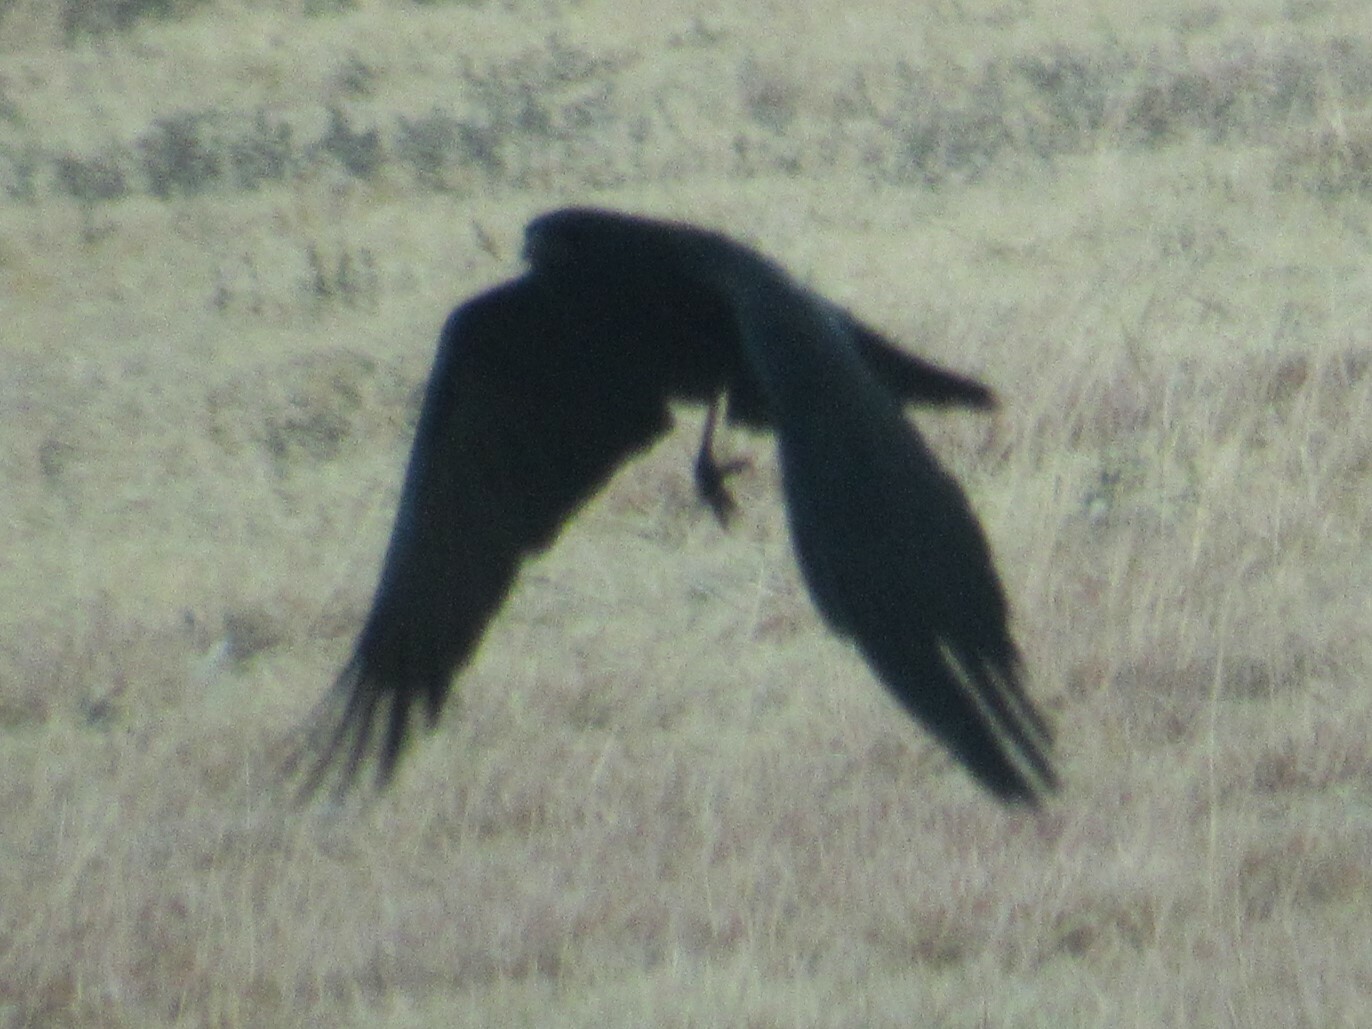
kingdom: Animalia
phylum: Chordata
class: Aves
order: Passeriformes
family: Corvidae
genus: Corvus
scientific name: Corvus brachyrhynchos
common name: American crow
